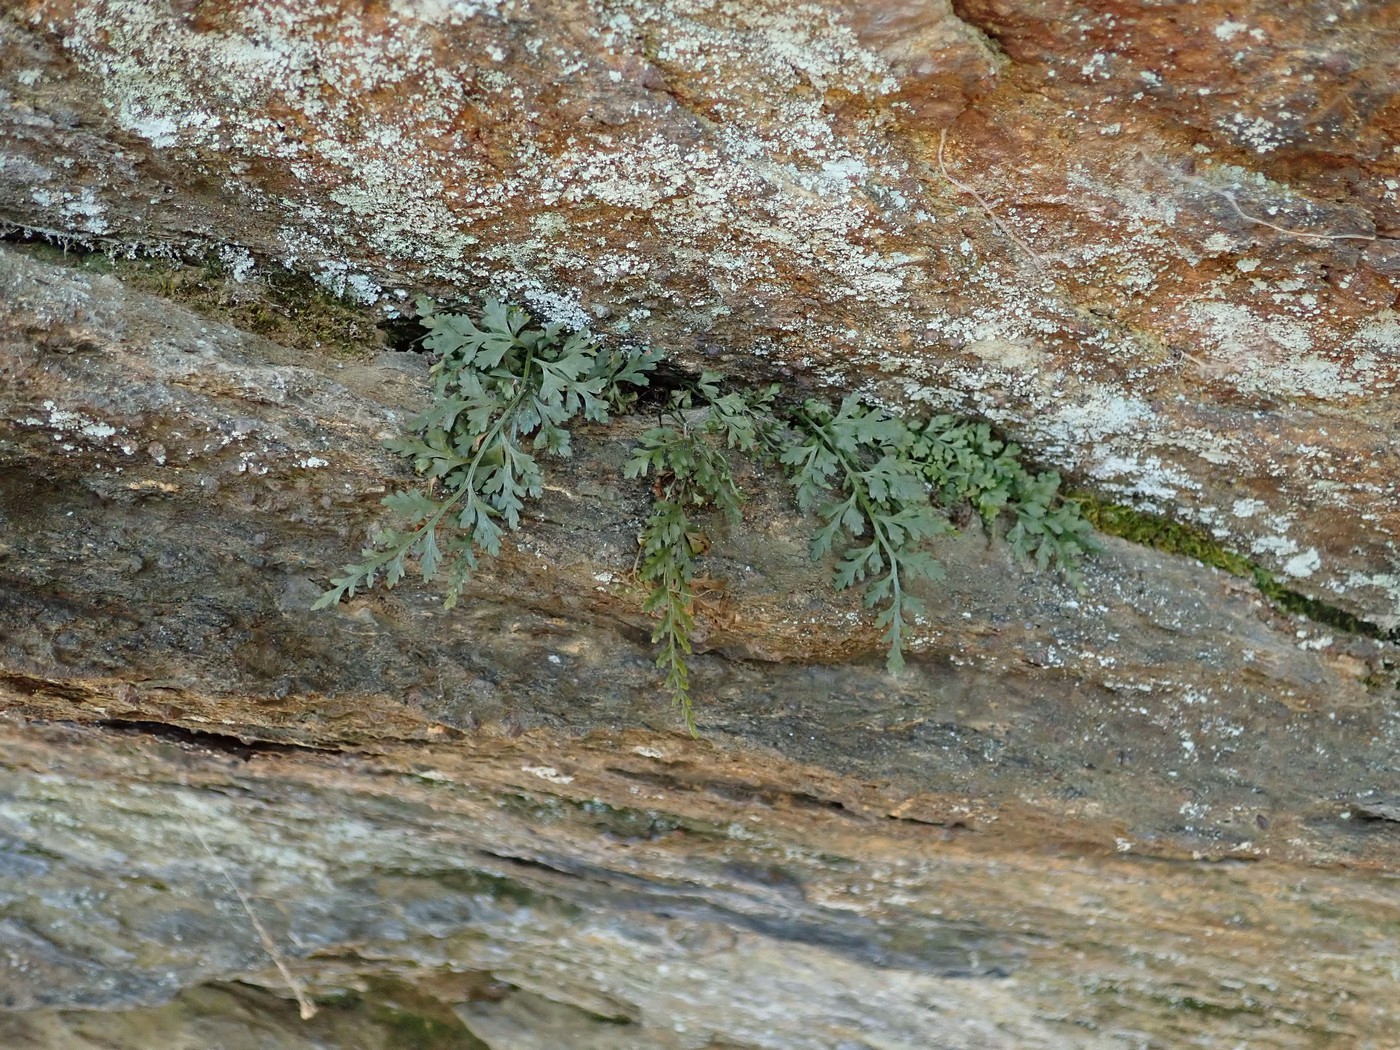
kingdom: Plantae
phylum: Tracheophyta
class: Polypodiopsida
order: Polypodiales
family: Aspleniaceae
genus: Asplenium
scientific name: Asplenium montanum
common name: Mountain spleenwort
